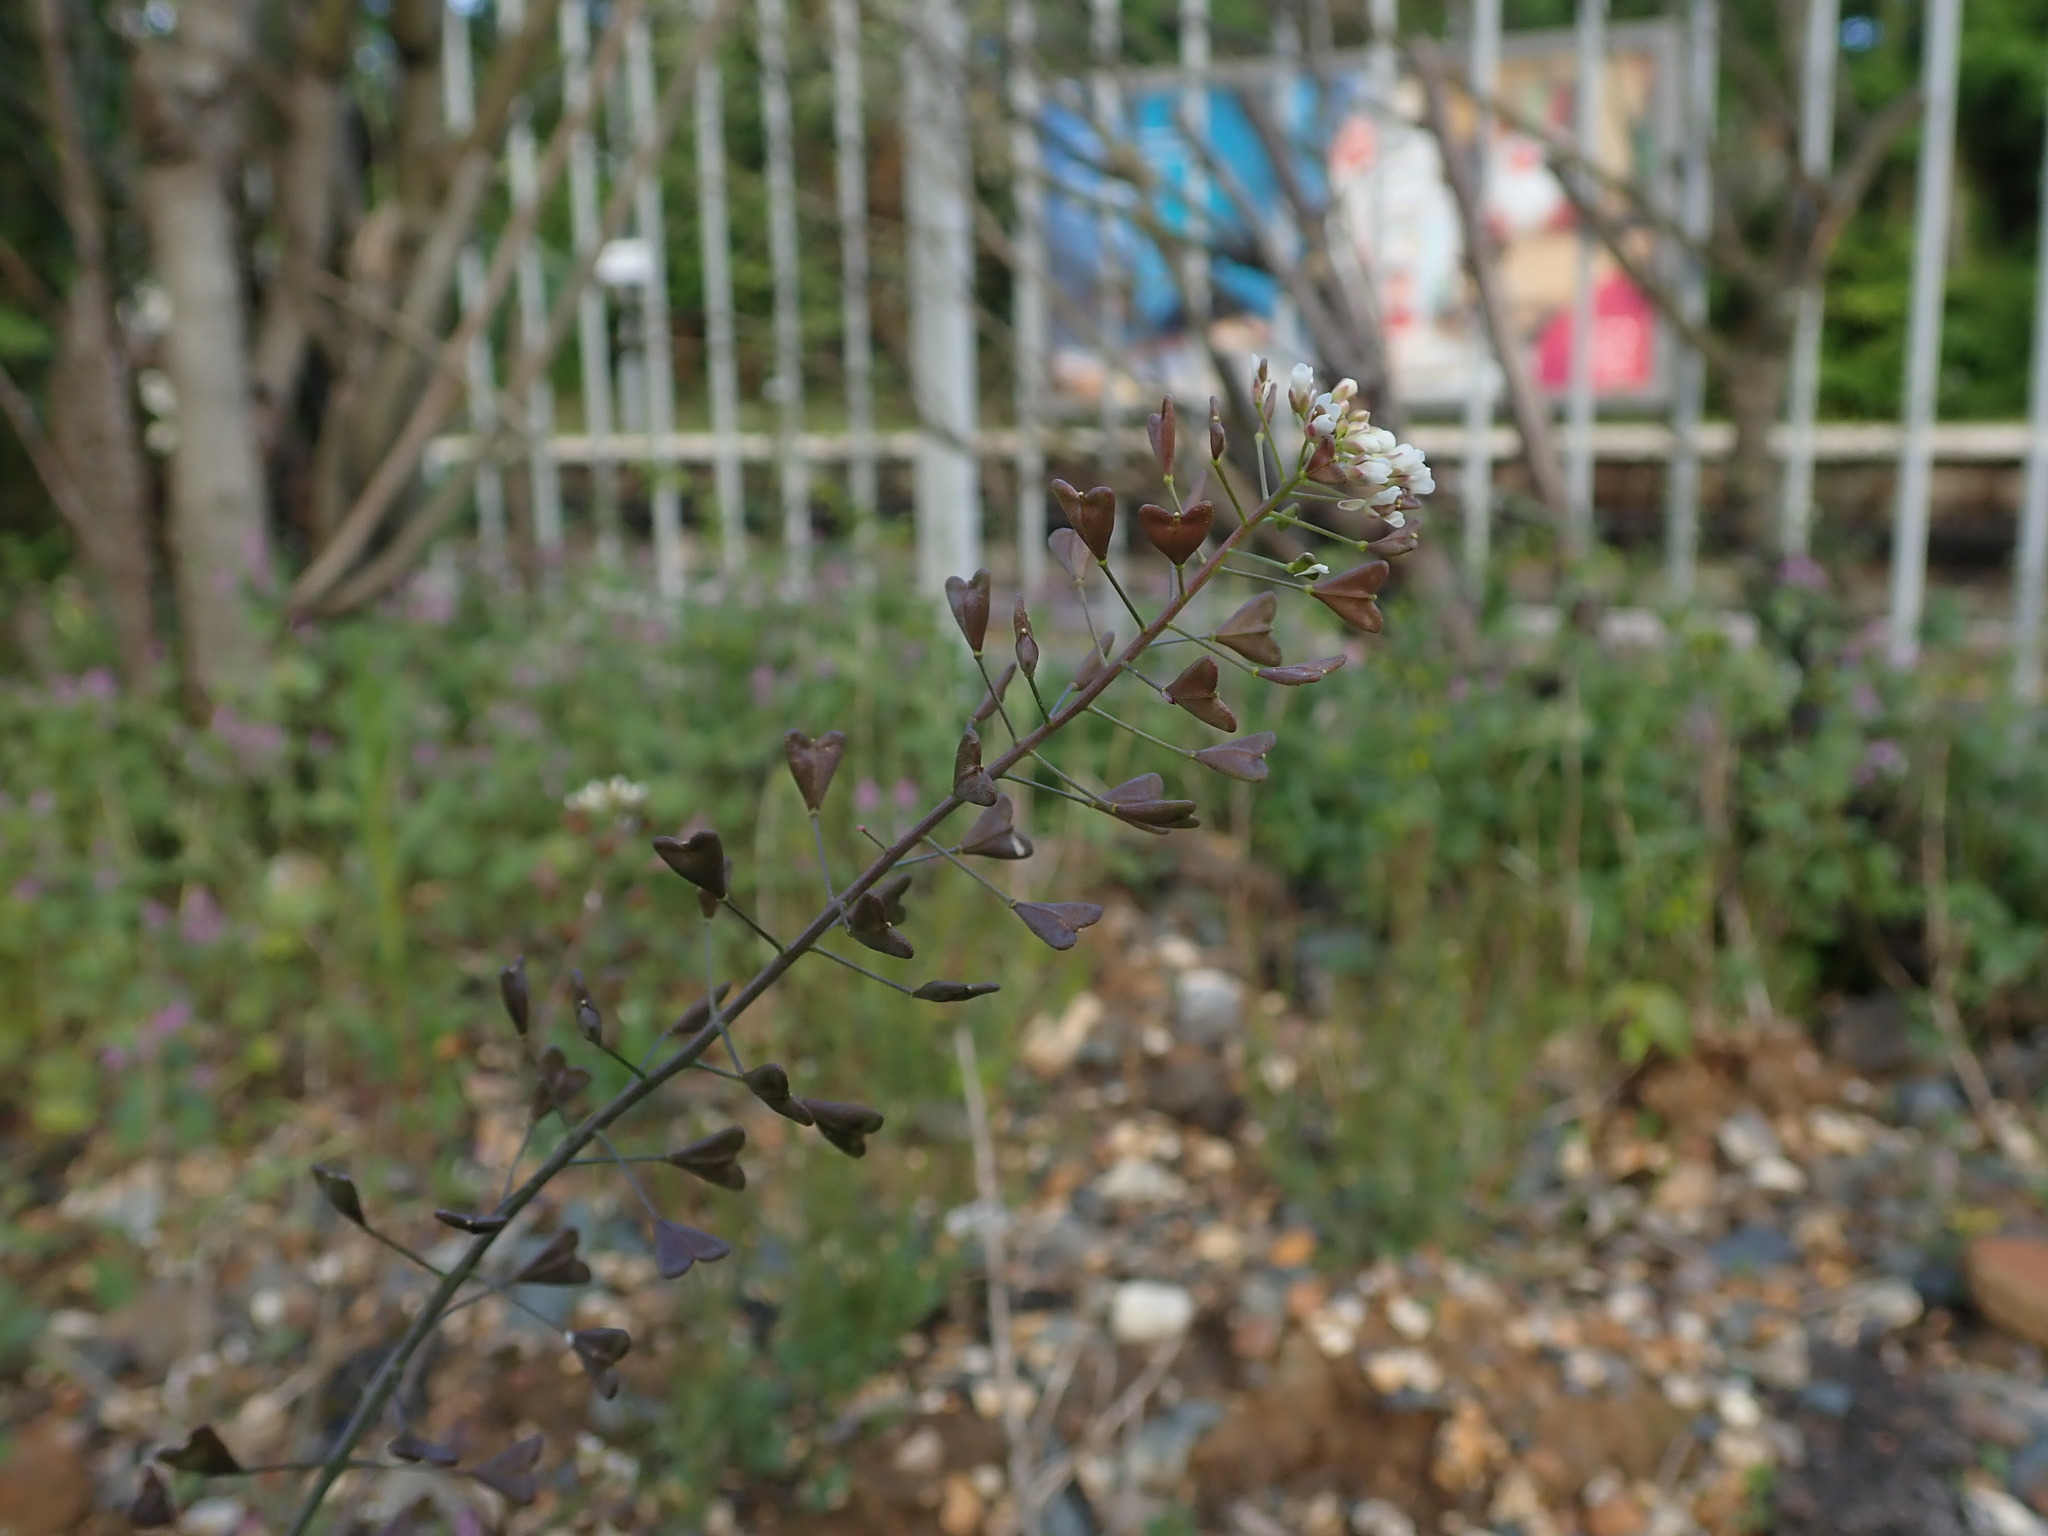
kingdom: Plantae
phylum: Tracheophyta
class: Magnoliopsida
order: Brassicales
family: Brassicaceae
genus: Capsella
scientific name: Capsella bursa-pastoris
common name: Shepherd's purse
